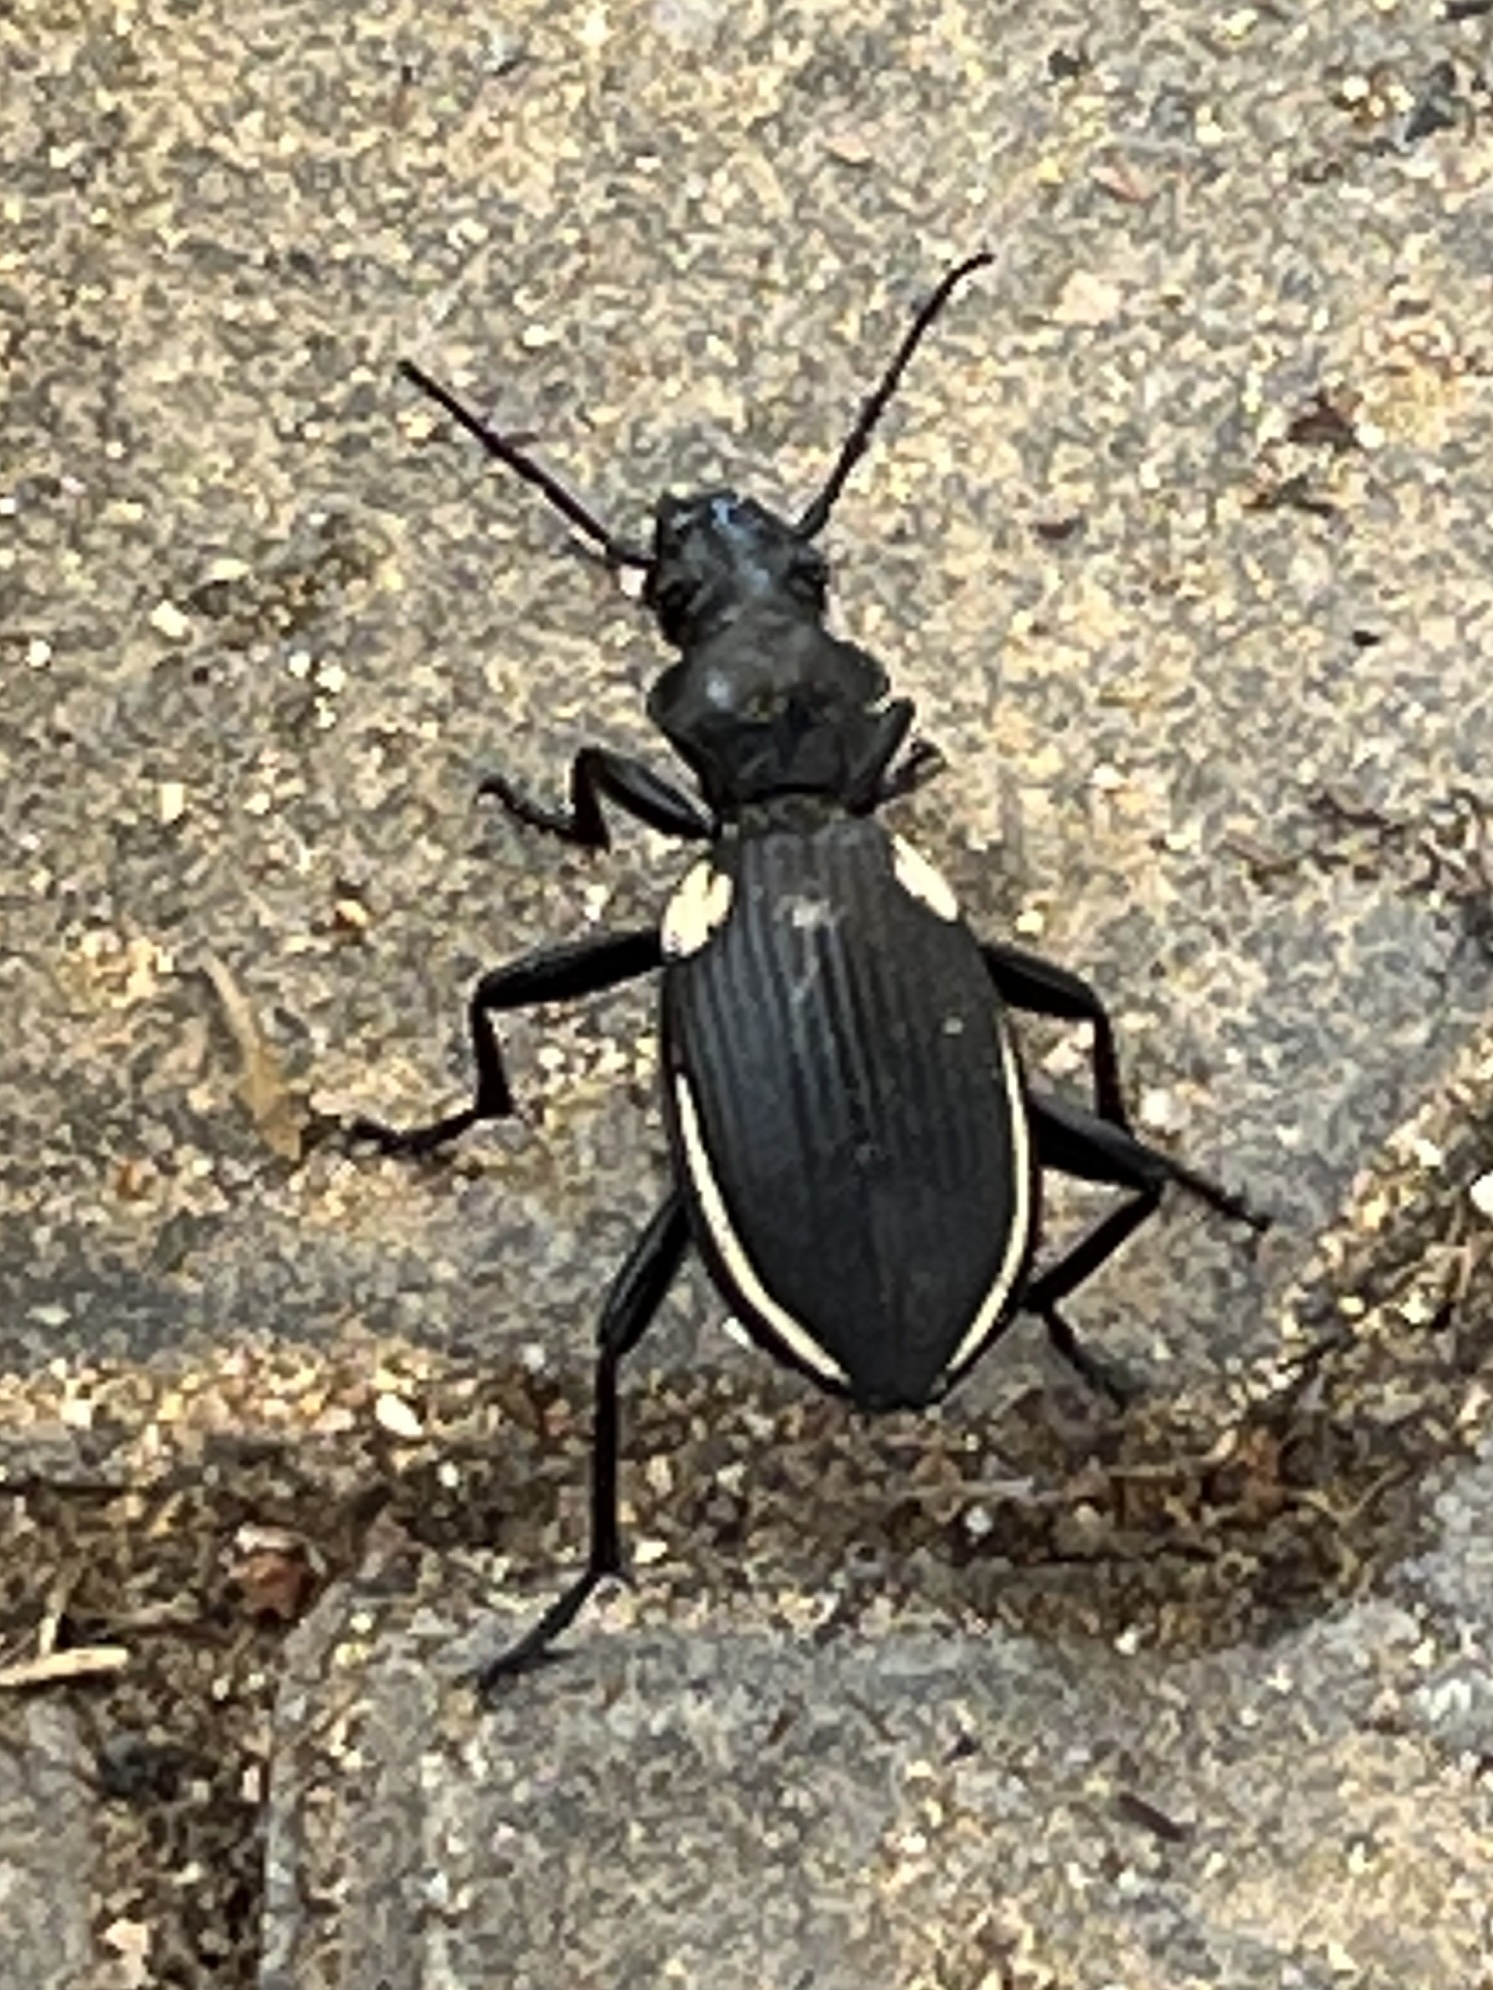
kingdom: Animalia
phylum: Arthropoda
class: Insecta
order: Coleoptera
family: Carabidae
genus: Anthia
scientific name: Anthia
